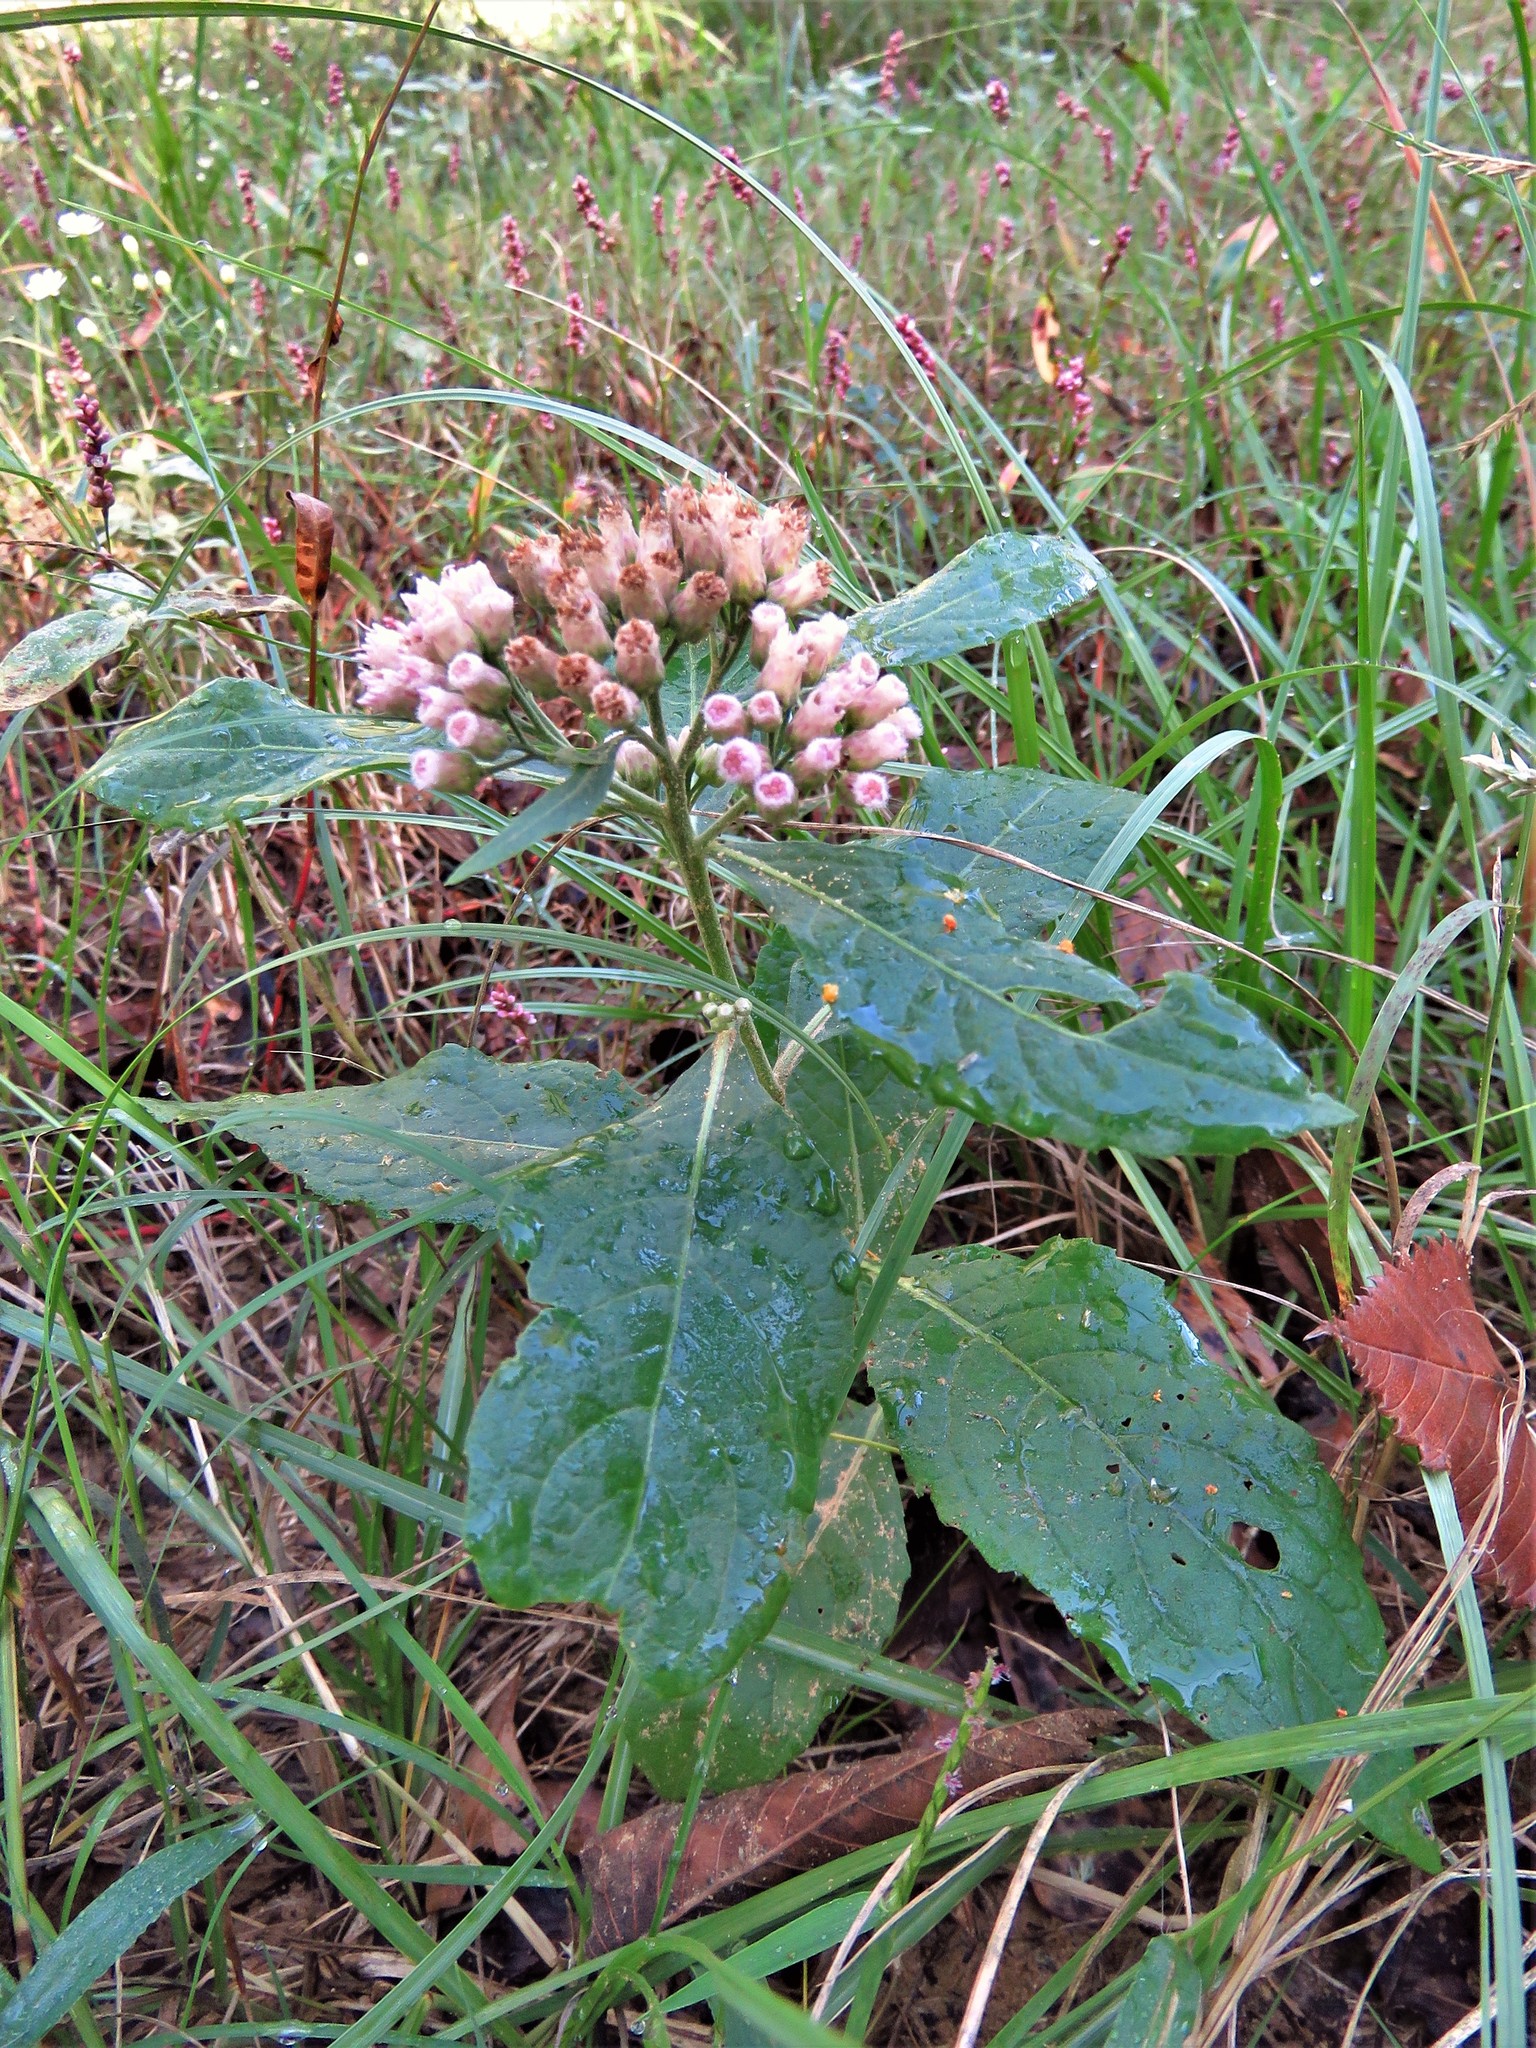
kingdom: Plantae
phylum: Tracheophyta
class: Magnoliopsida
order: Asterales
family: Asteraceae
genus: Pluchea
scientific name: Pluchea camphorata
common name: Camphor pluchea
